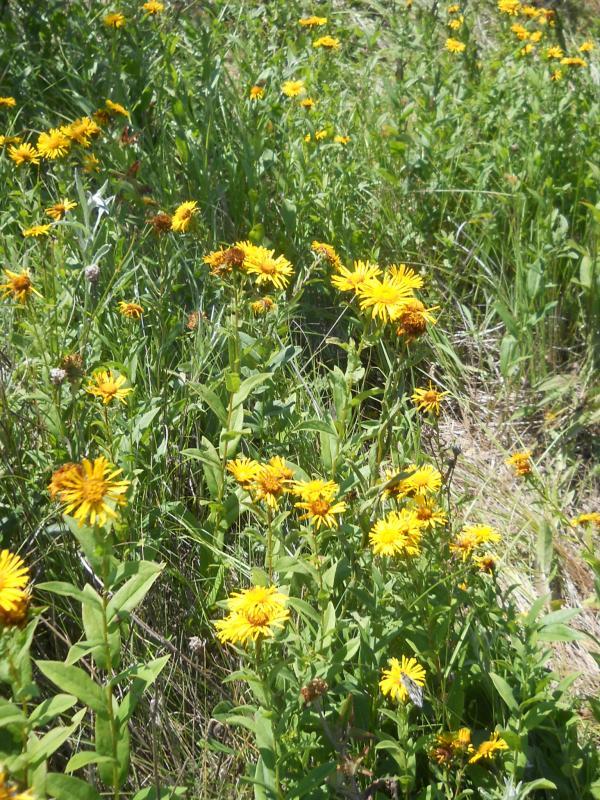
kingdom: Plantae
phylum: Tracheophyta
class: Magnoliopsida
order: Asterales
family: Asteraceae
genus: Pentanema
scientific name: Pentanema salicinum
